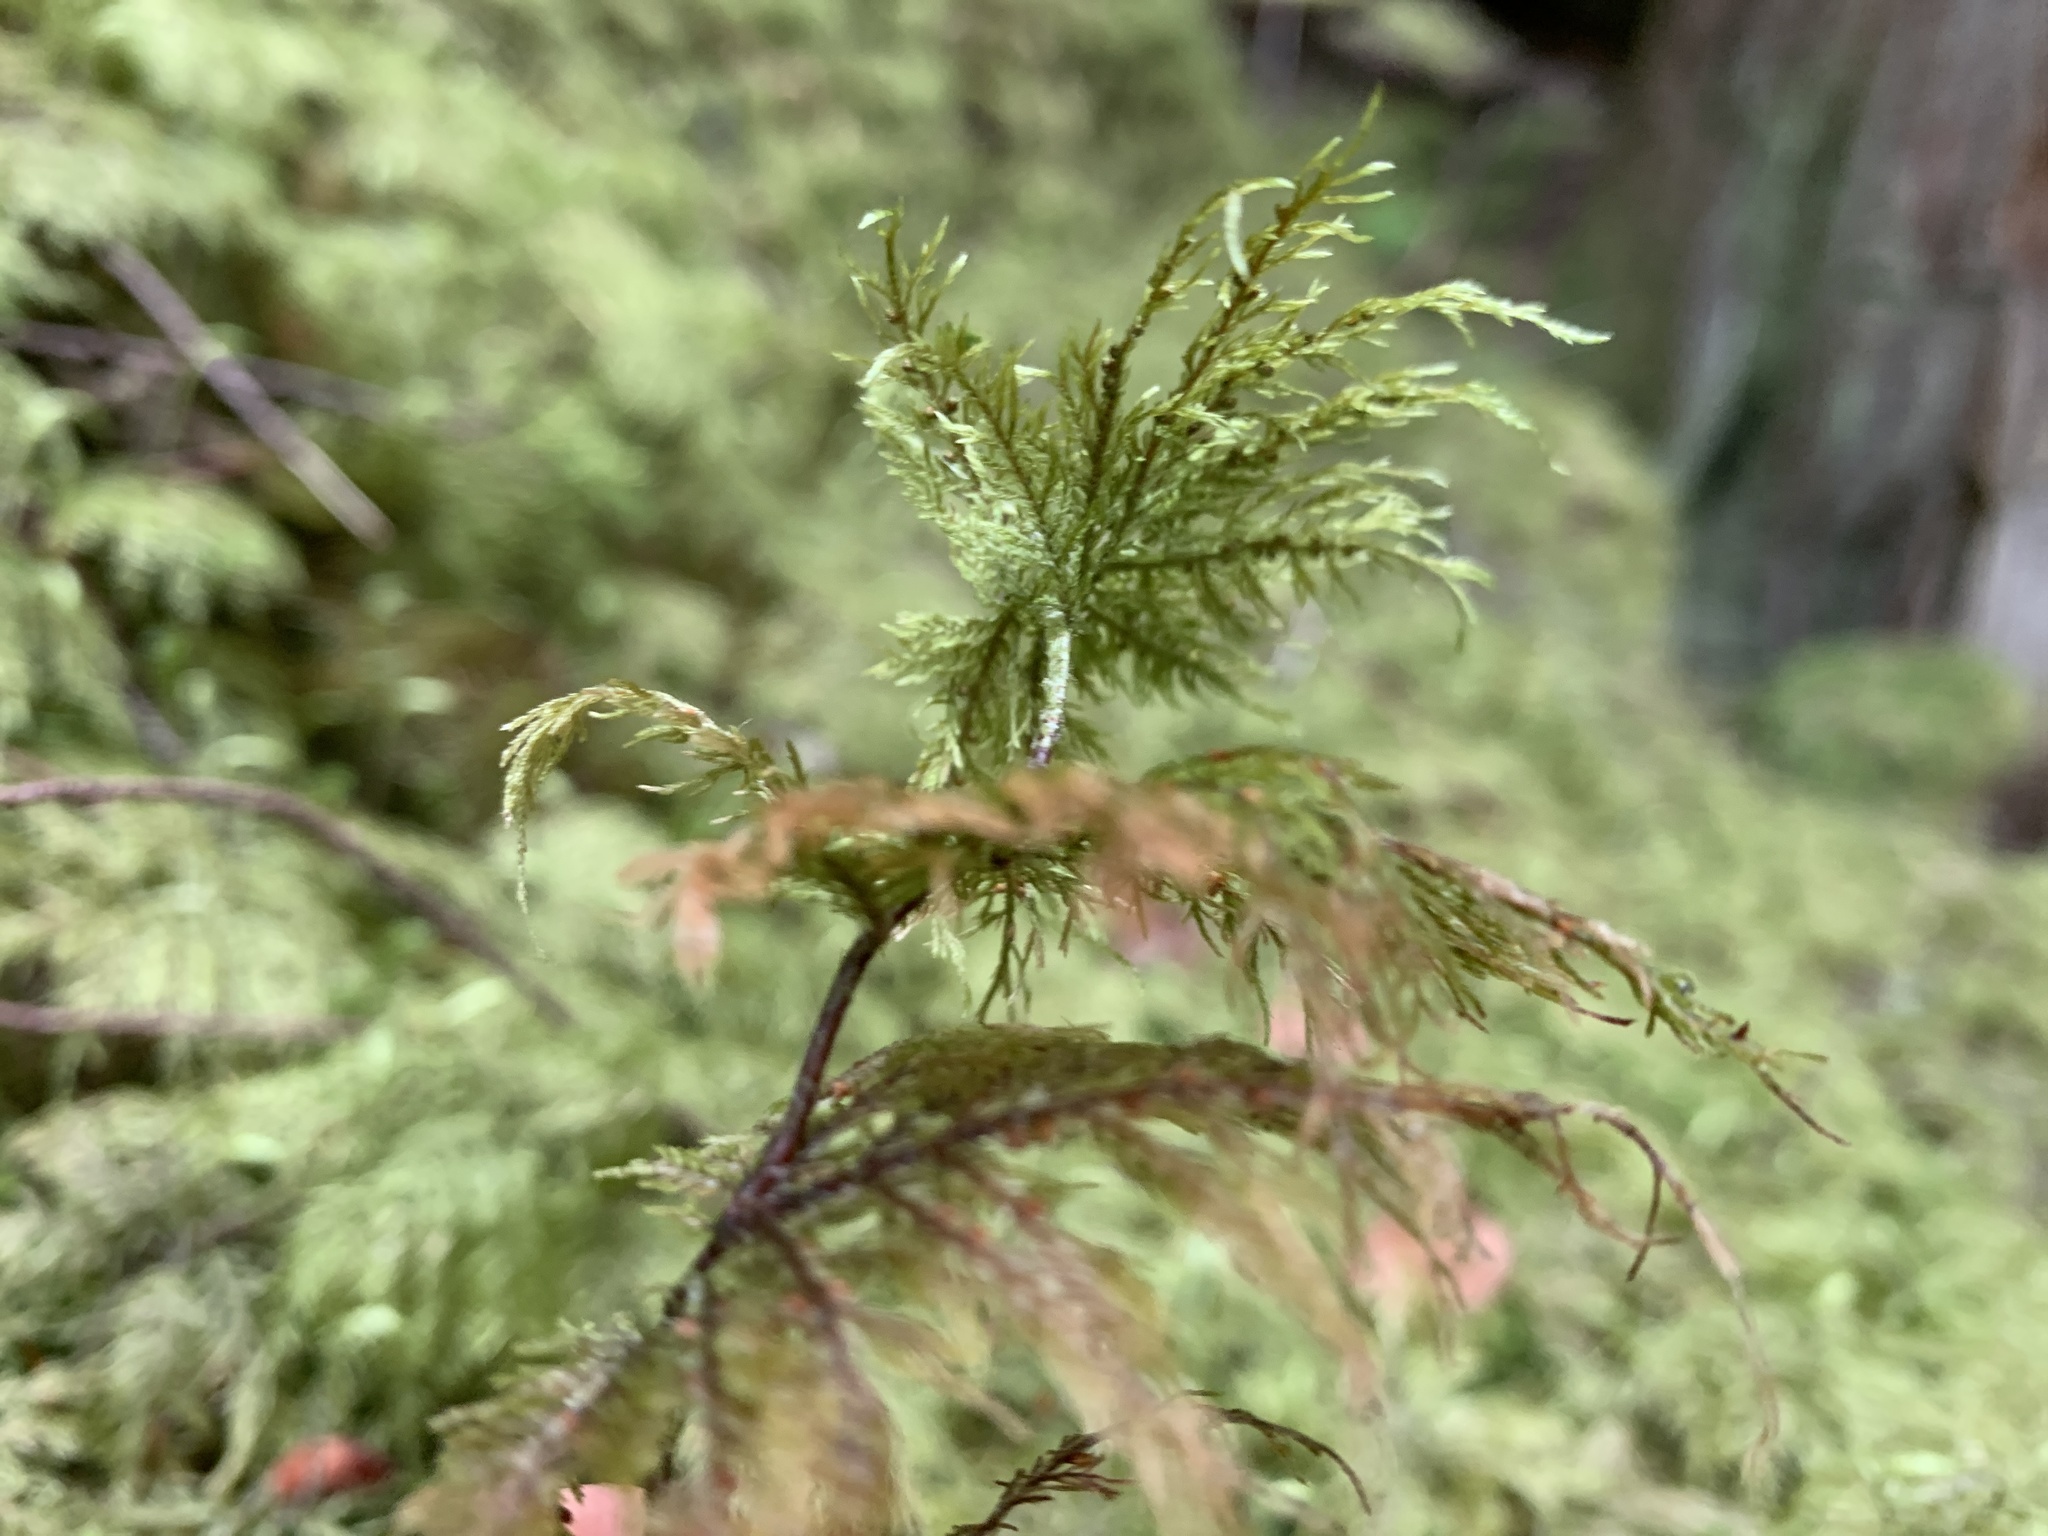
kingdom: Plantae
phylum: Bryophyta
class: Bryopsida
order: Hypnales
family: Hylocomiaceae
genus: Hylocomium
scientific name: Hylocomium splendens
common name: Stairstep moss
